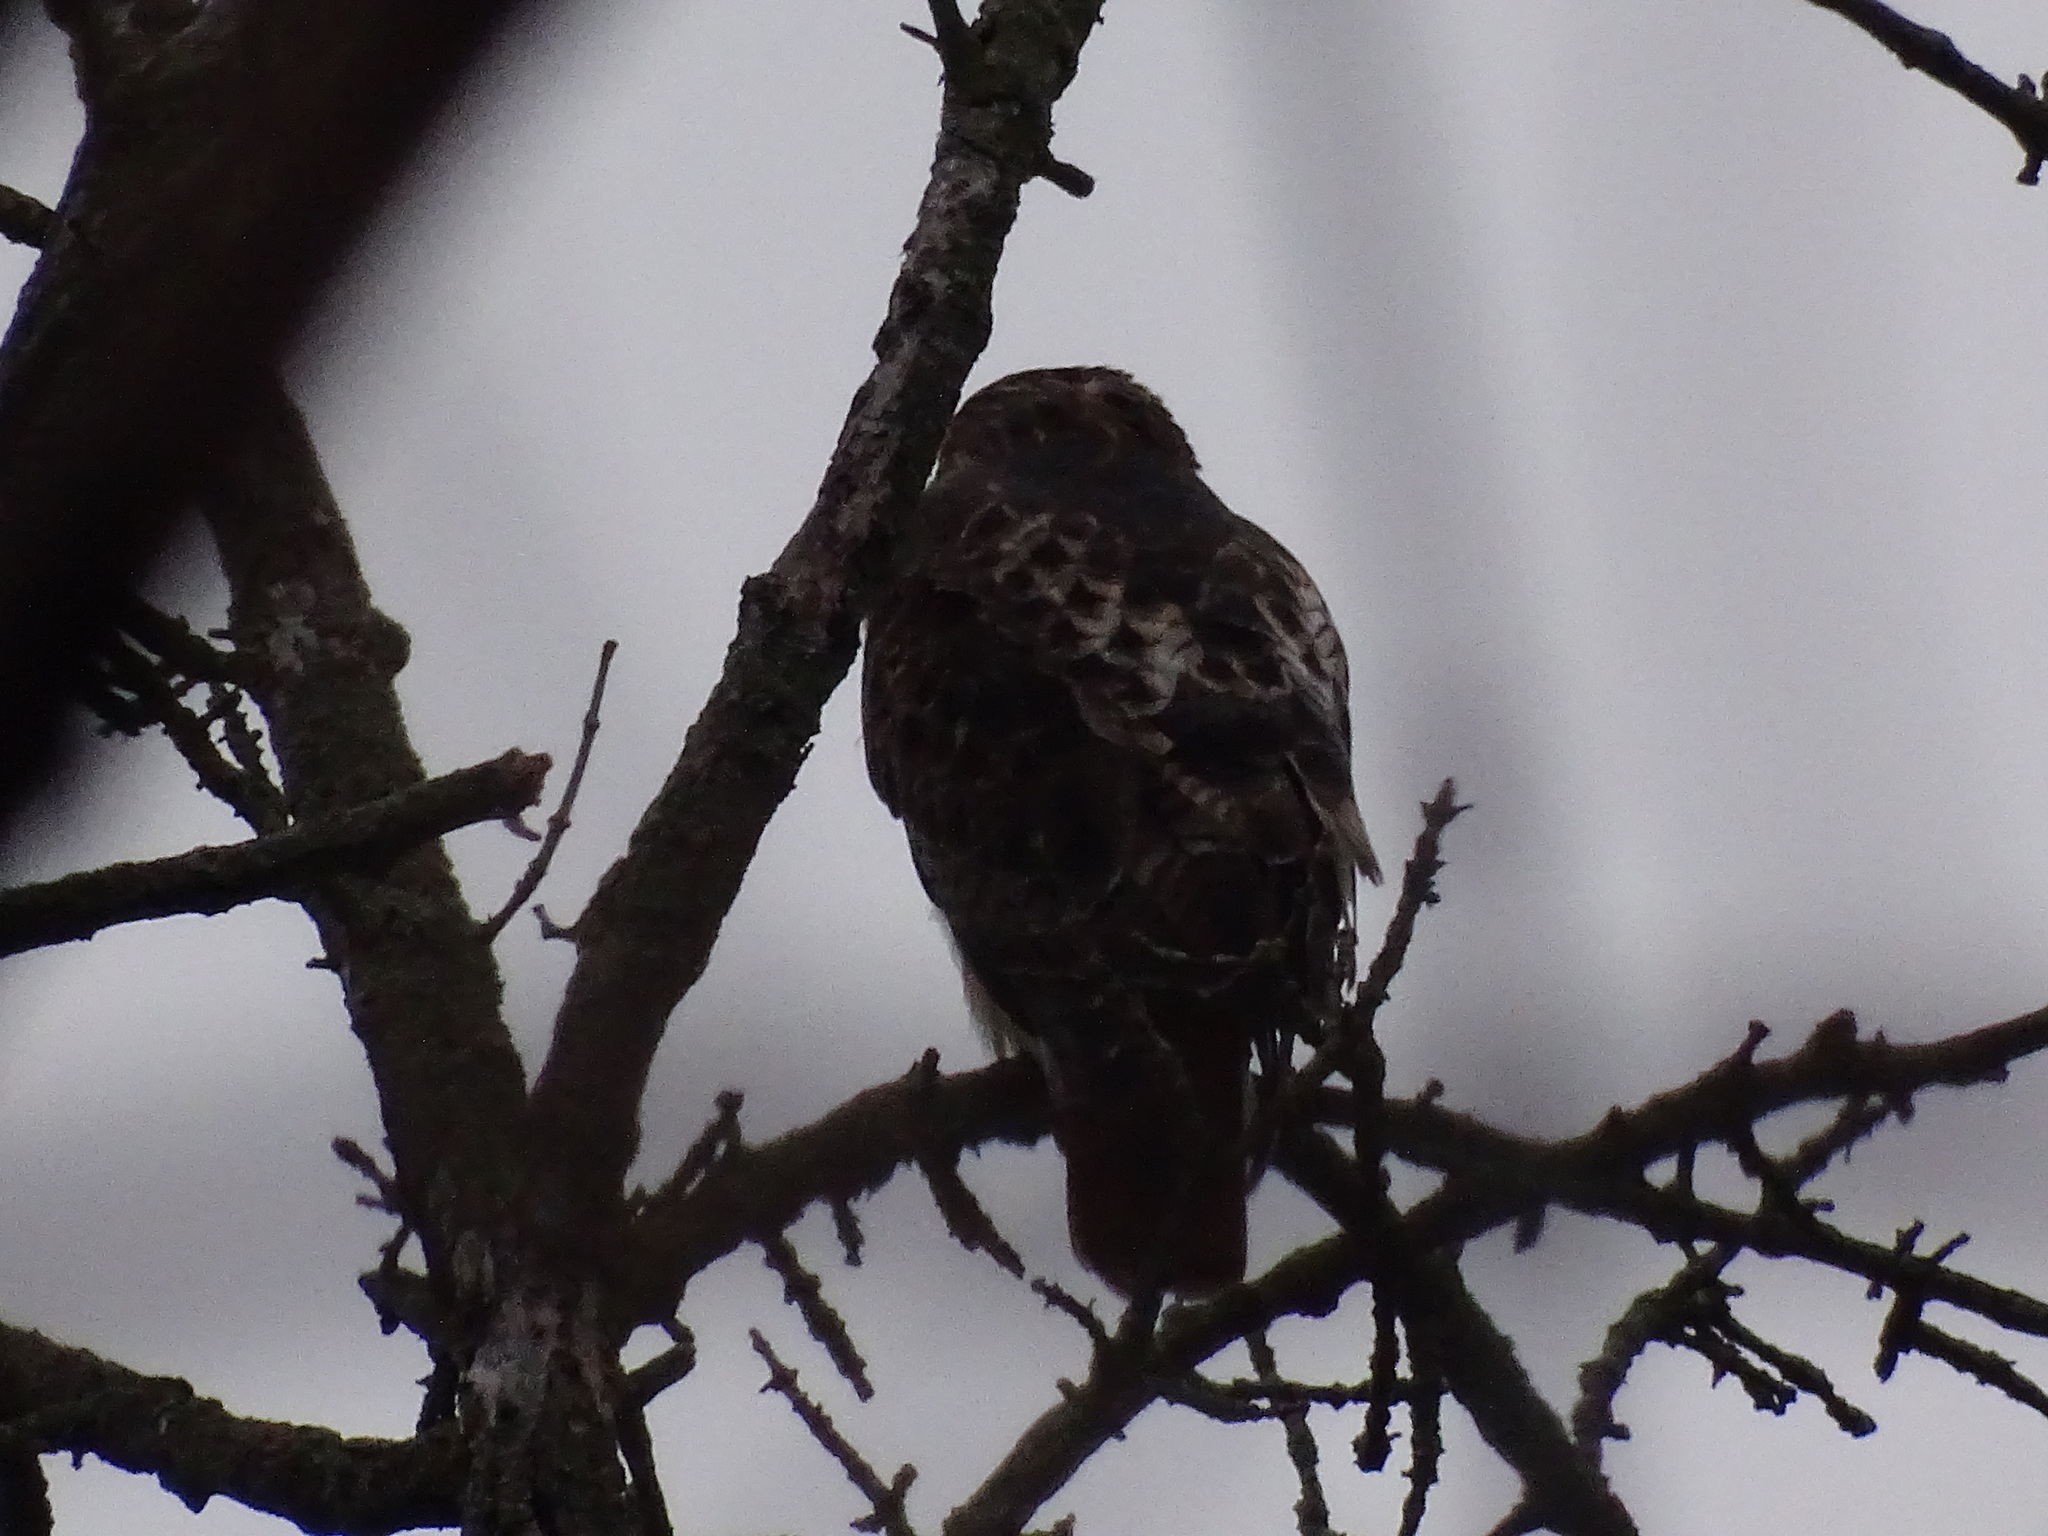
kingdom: Animalia
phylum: Chordata
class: Aves
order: Accipitriformes
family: Accipitridae
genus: Buteo
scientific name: Buteo jamaicensis
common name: Red-tailed hawk
